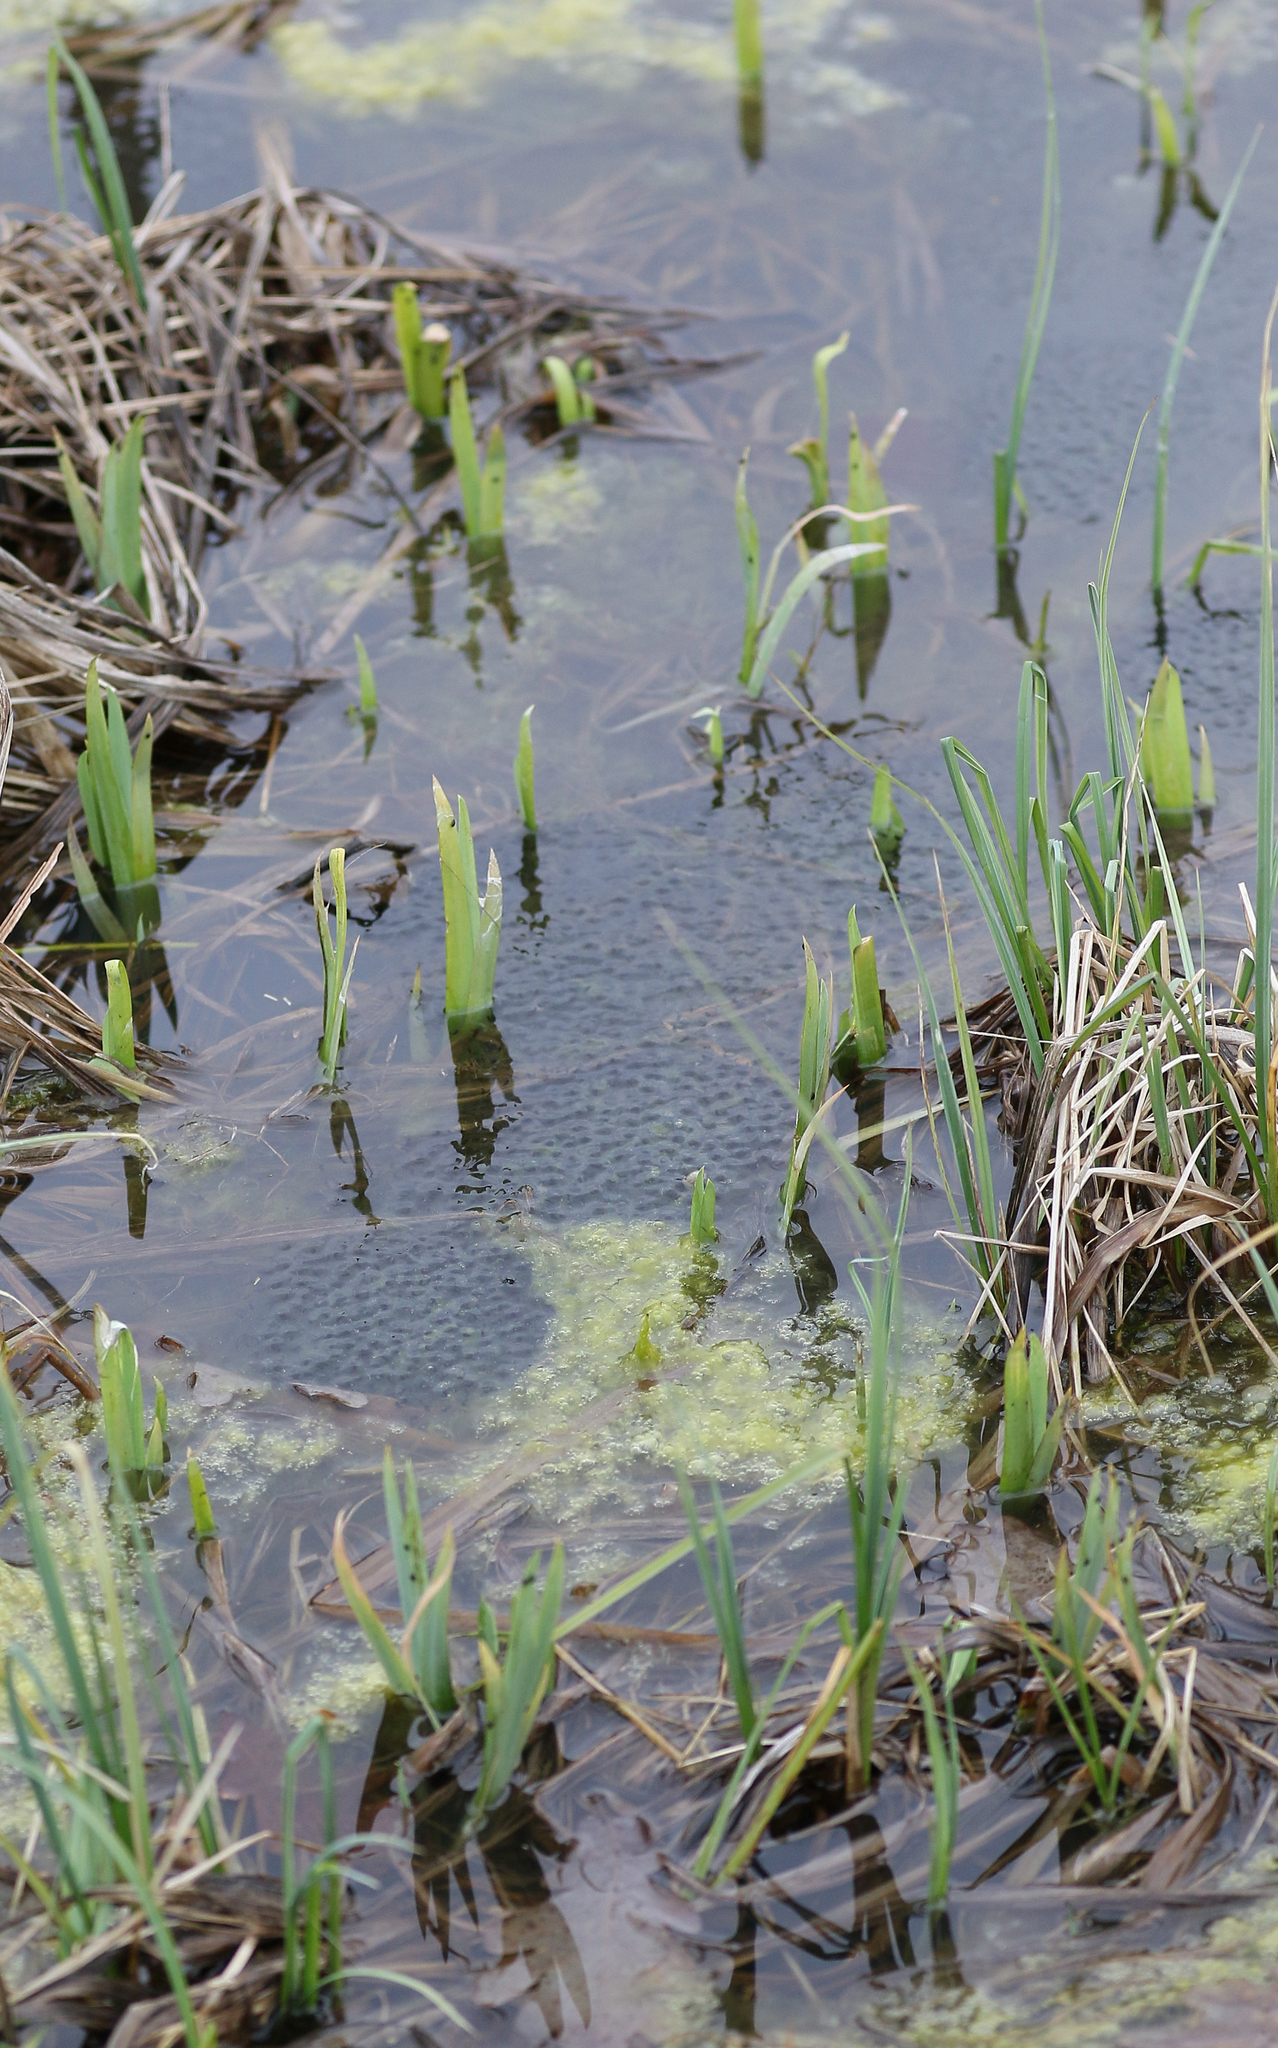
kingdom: Animalia
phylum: Chordata
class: Amphibia
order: Anura
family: Ranidae
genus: Rana
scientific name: Rana arvalis
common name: Moor frog
